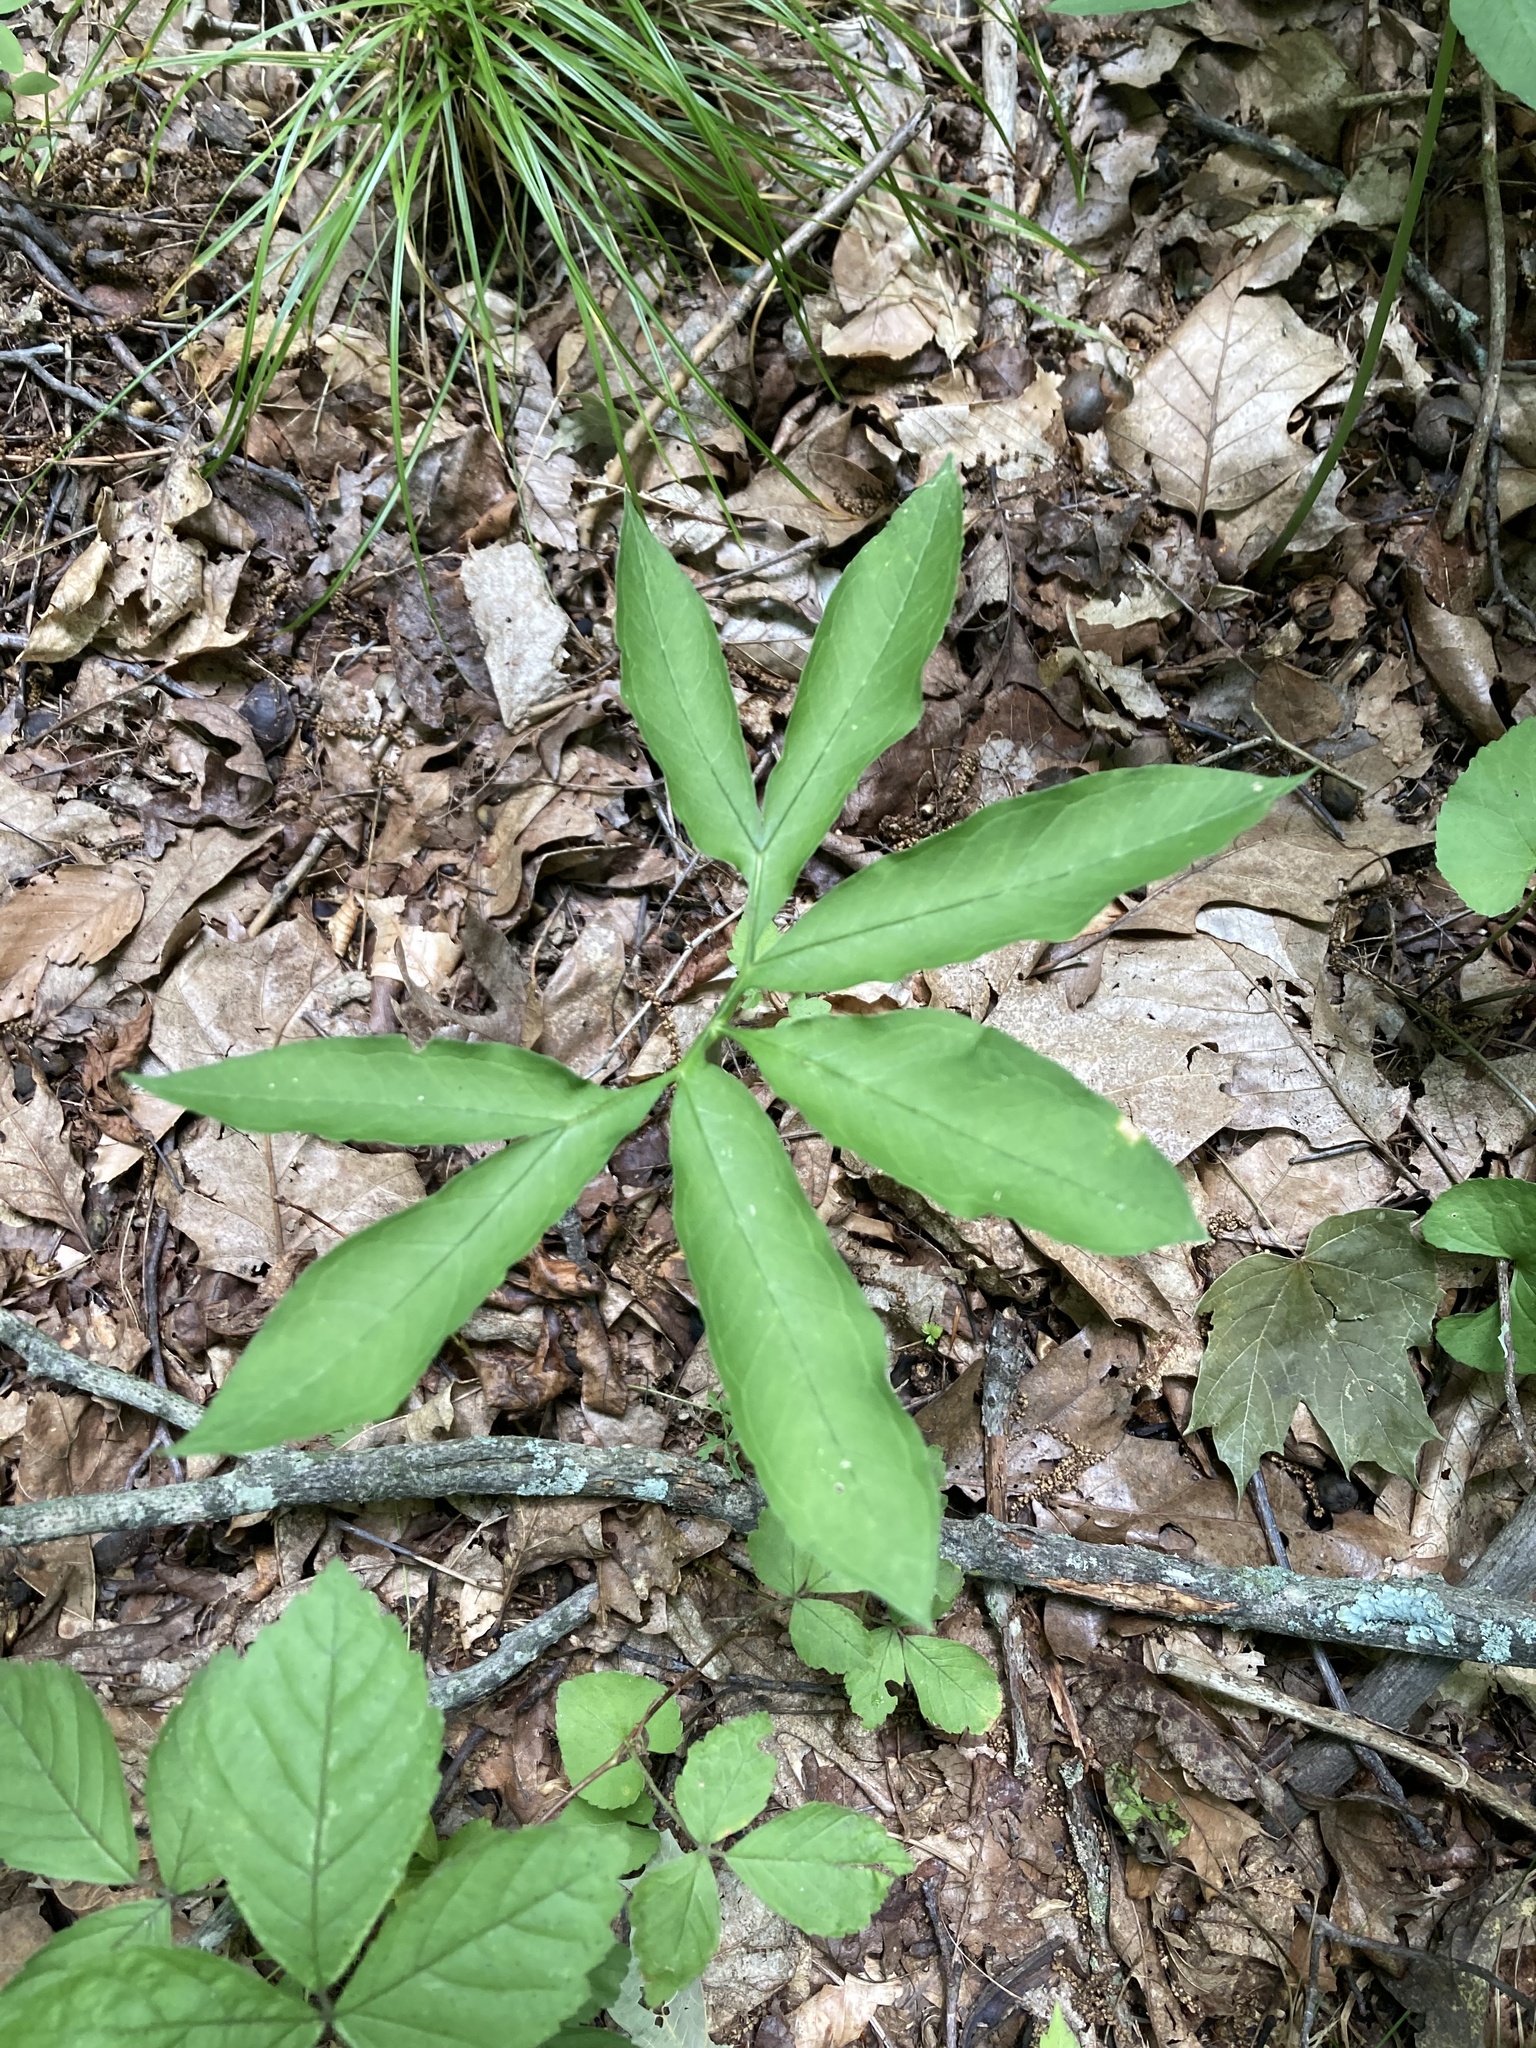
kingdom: Plantae
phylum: Tracheophyta
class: Liliopsida
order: Alismatales
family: Araceae
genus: Arisaema
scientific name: Arisaema dracontium
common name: Dragon-arum
